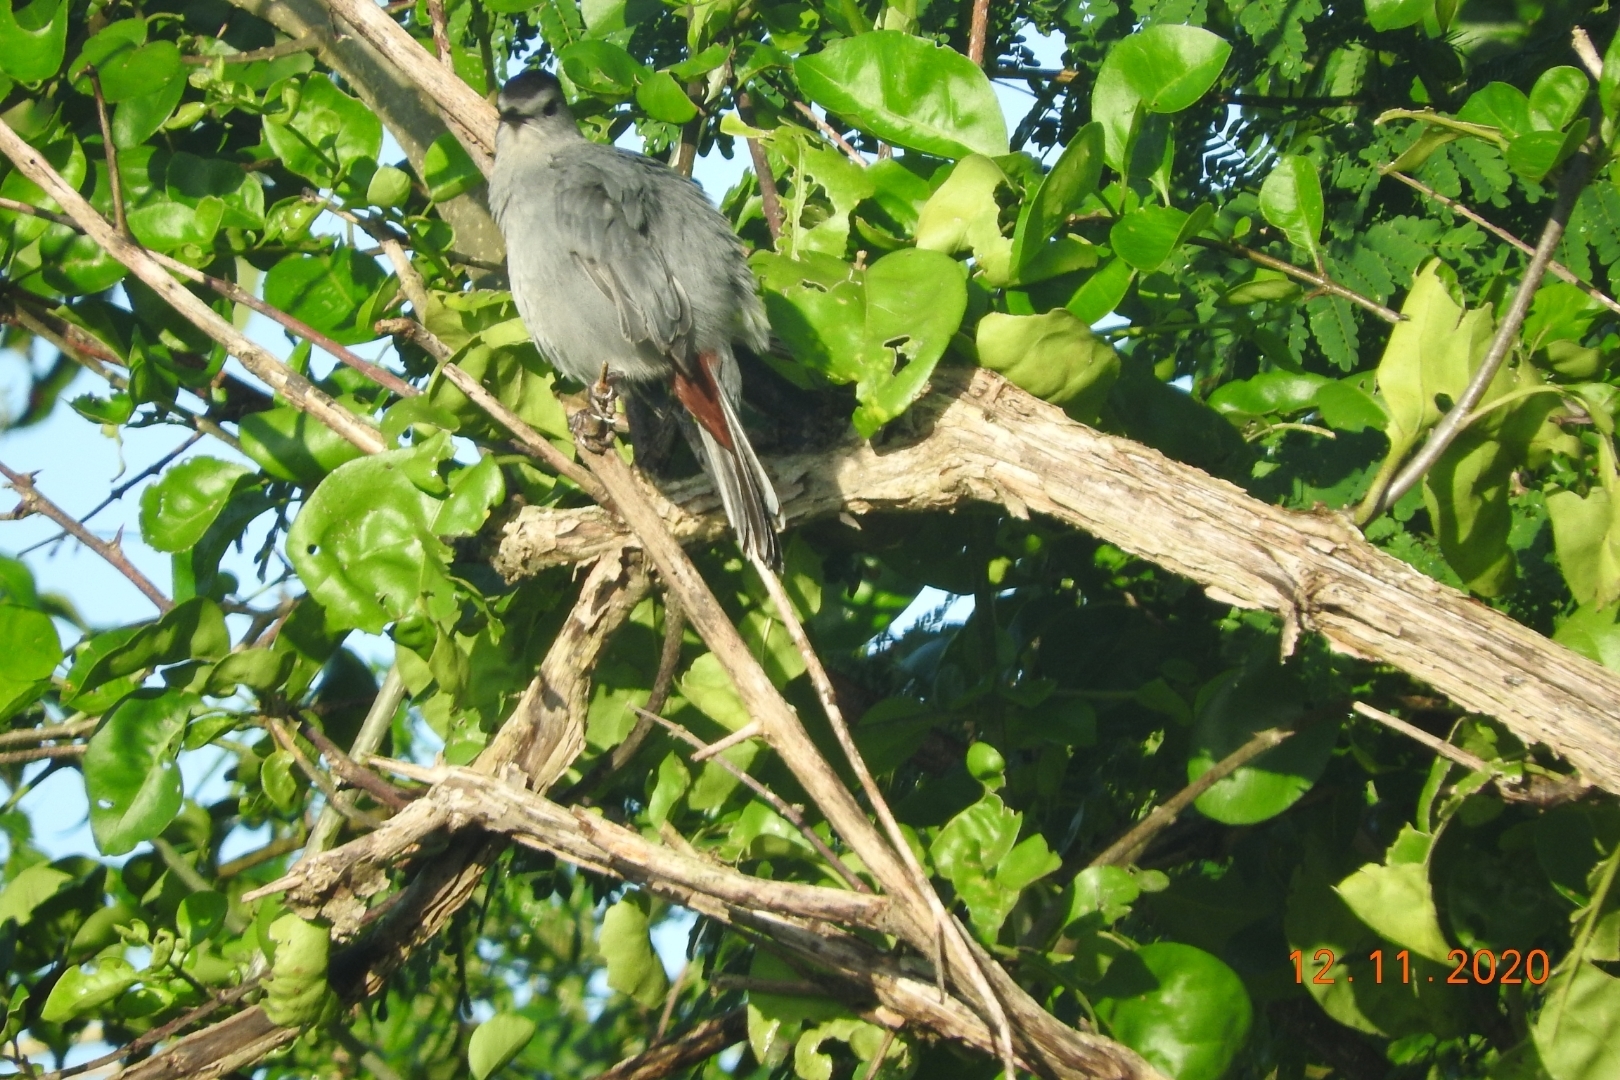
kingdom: Animalia
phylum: Chordata
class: Aves
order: Passeriformes
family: Mimidae
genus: Dumetella
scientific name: Dumetella carolinensis
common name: Gray catbird
